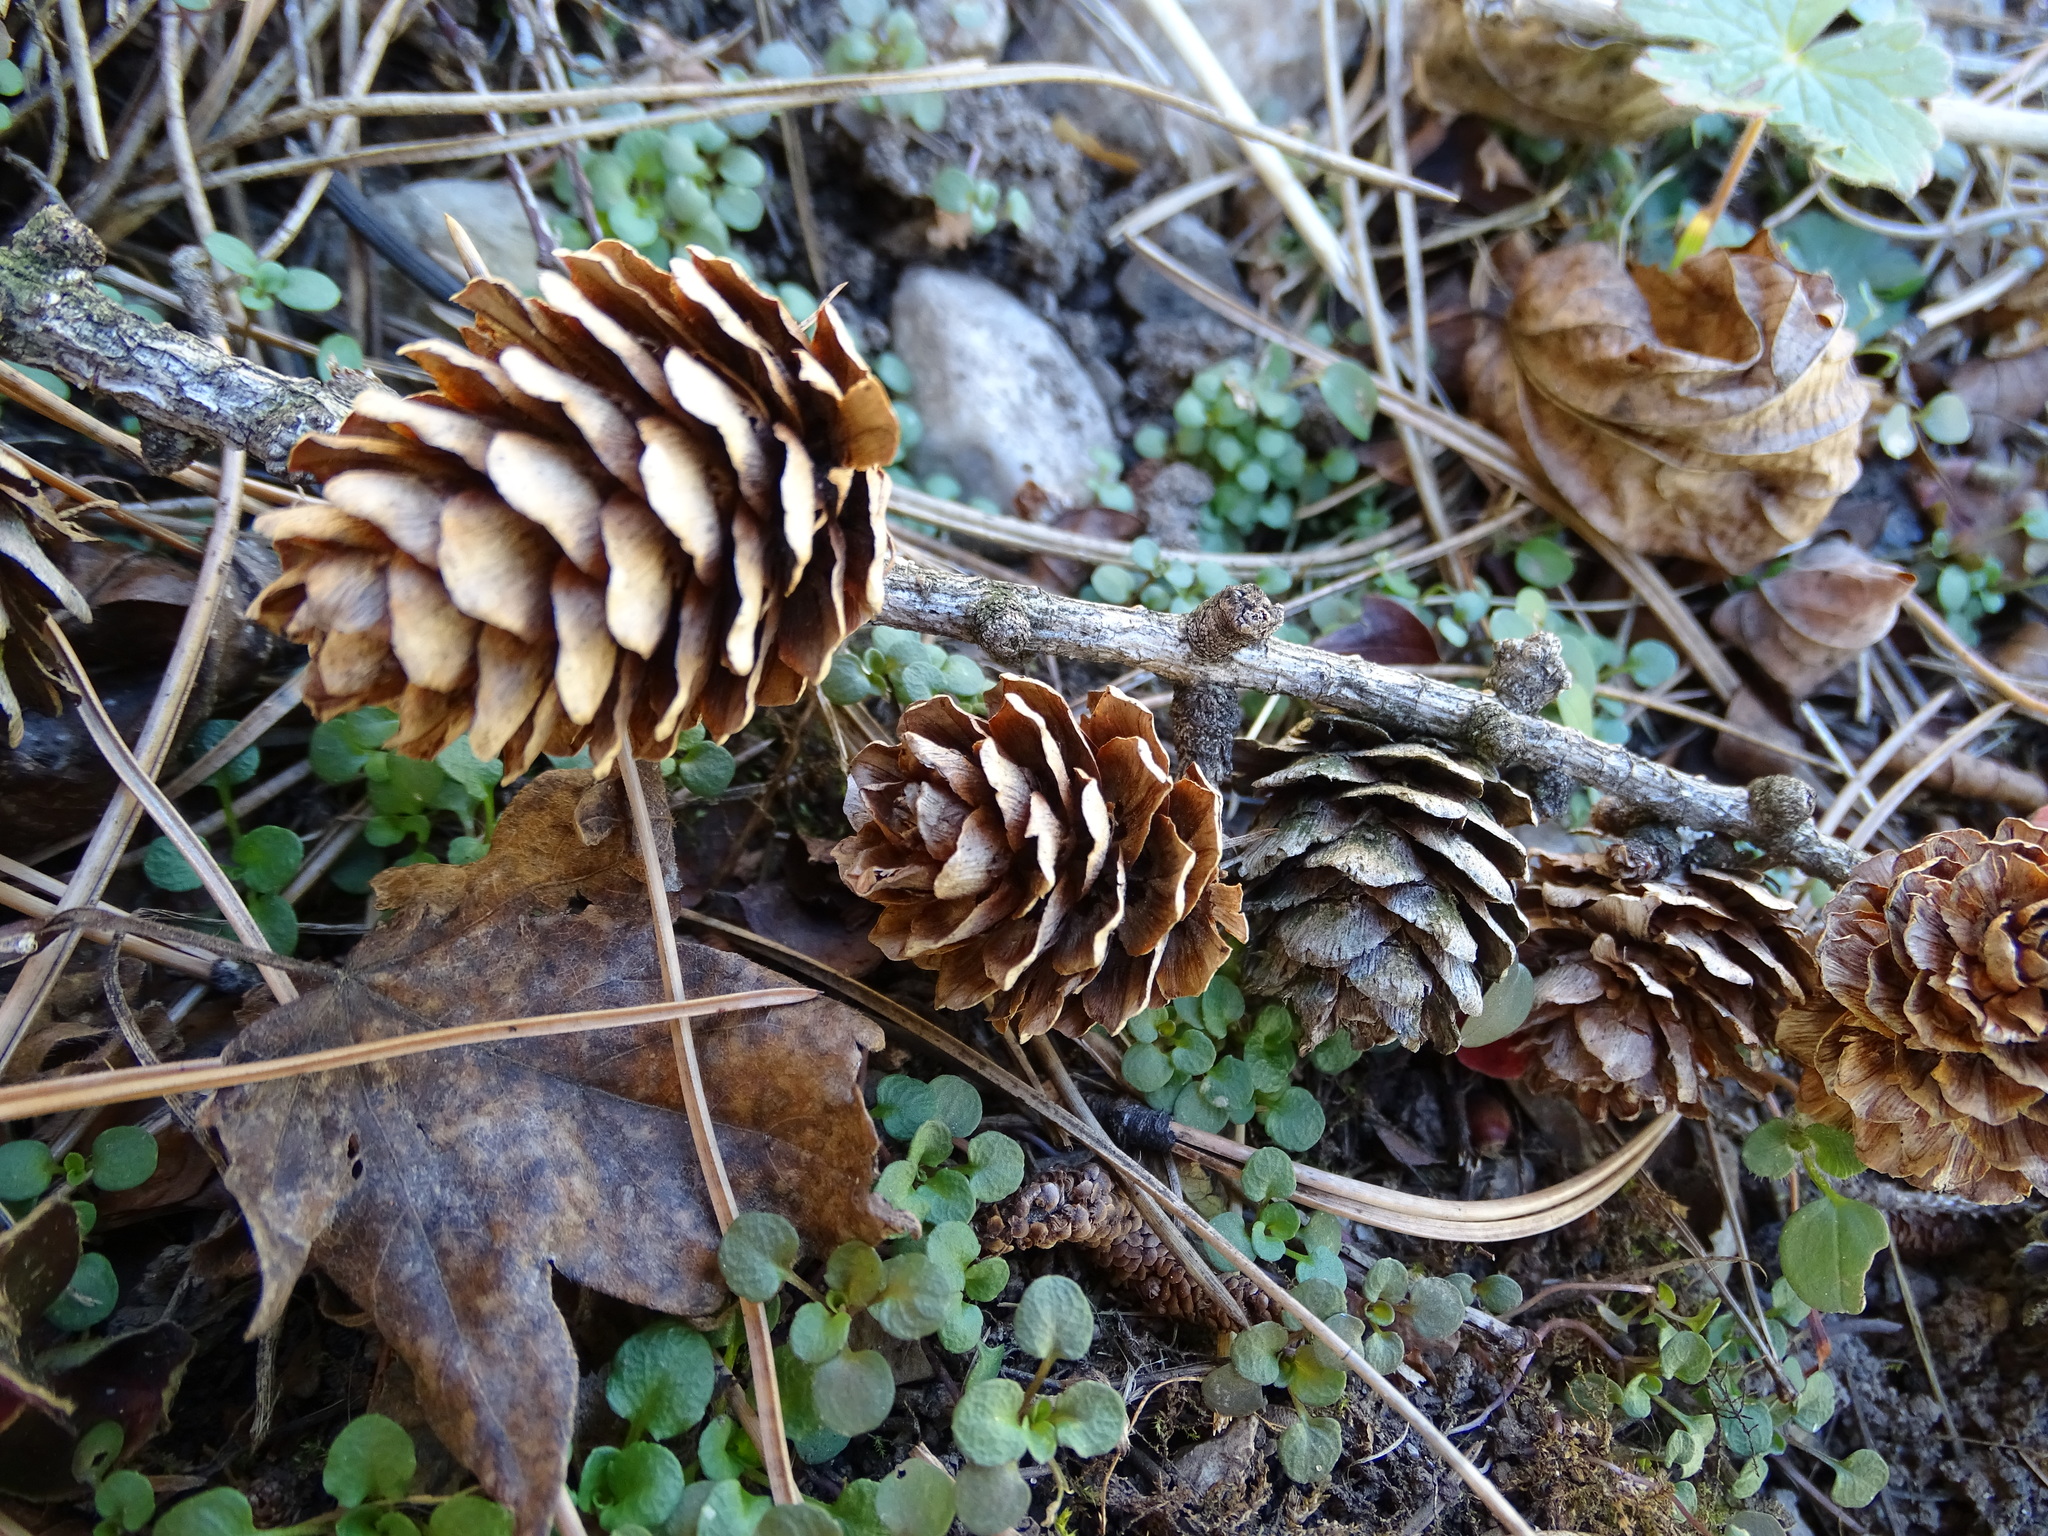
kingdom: Plantae
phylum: Tracheophyta
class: Pinopsida
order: Pinales
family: Pinaceae
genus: Larix
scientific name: Larix decidua
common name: European larch
